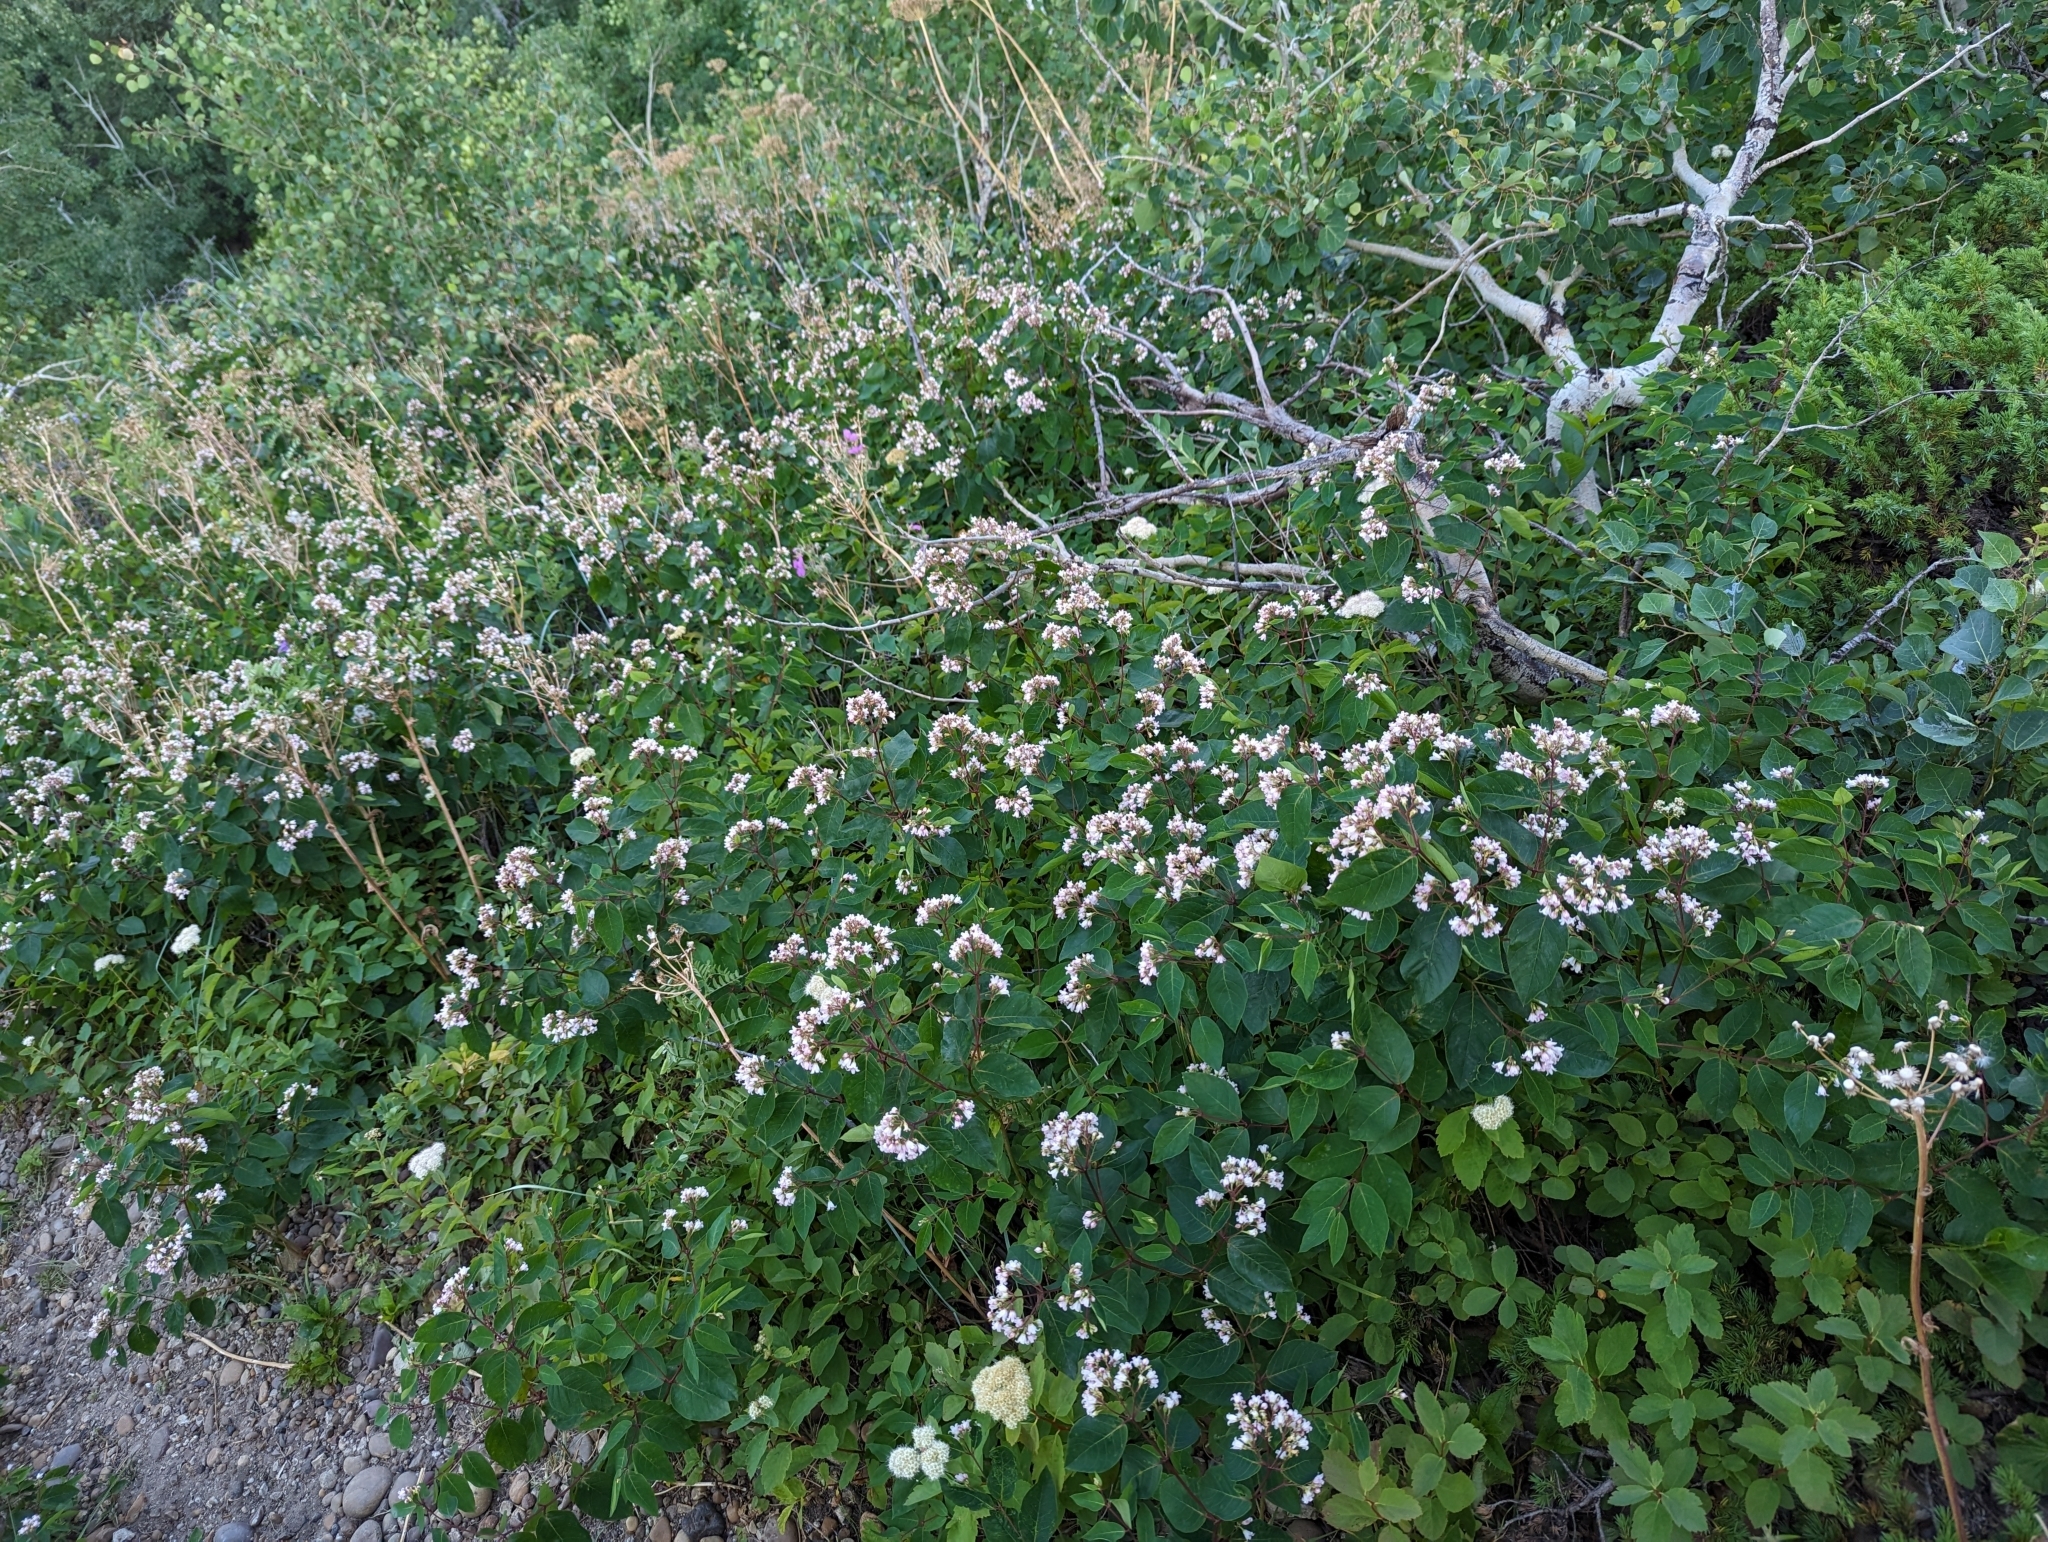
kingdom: Plantae
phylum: Tracheophyta
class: Magnoliopsida
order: Gentianales
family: Apocynaceae
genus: Apocynum
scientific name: Apocynum androsaemifolium
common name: Spreading dogbane
